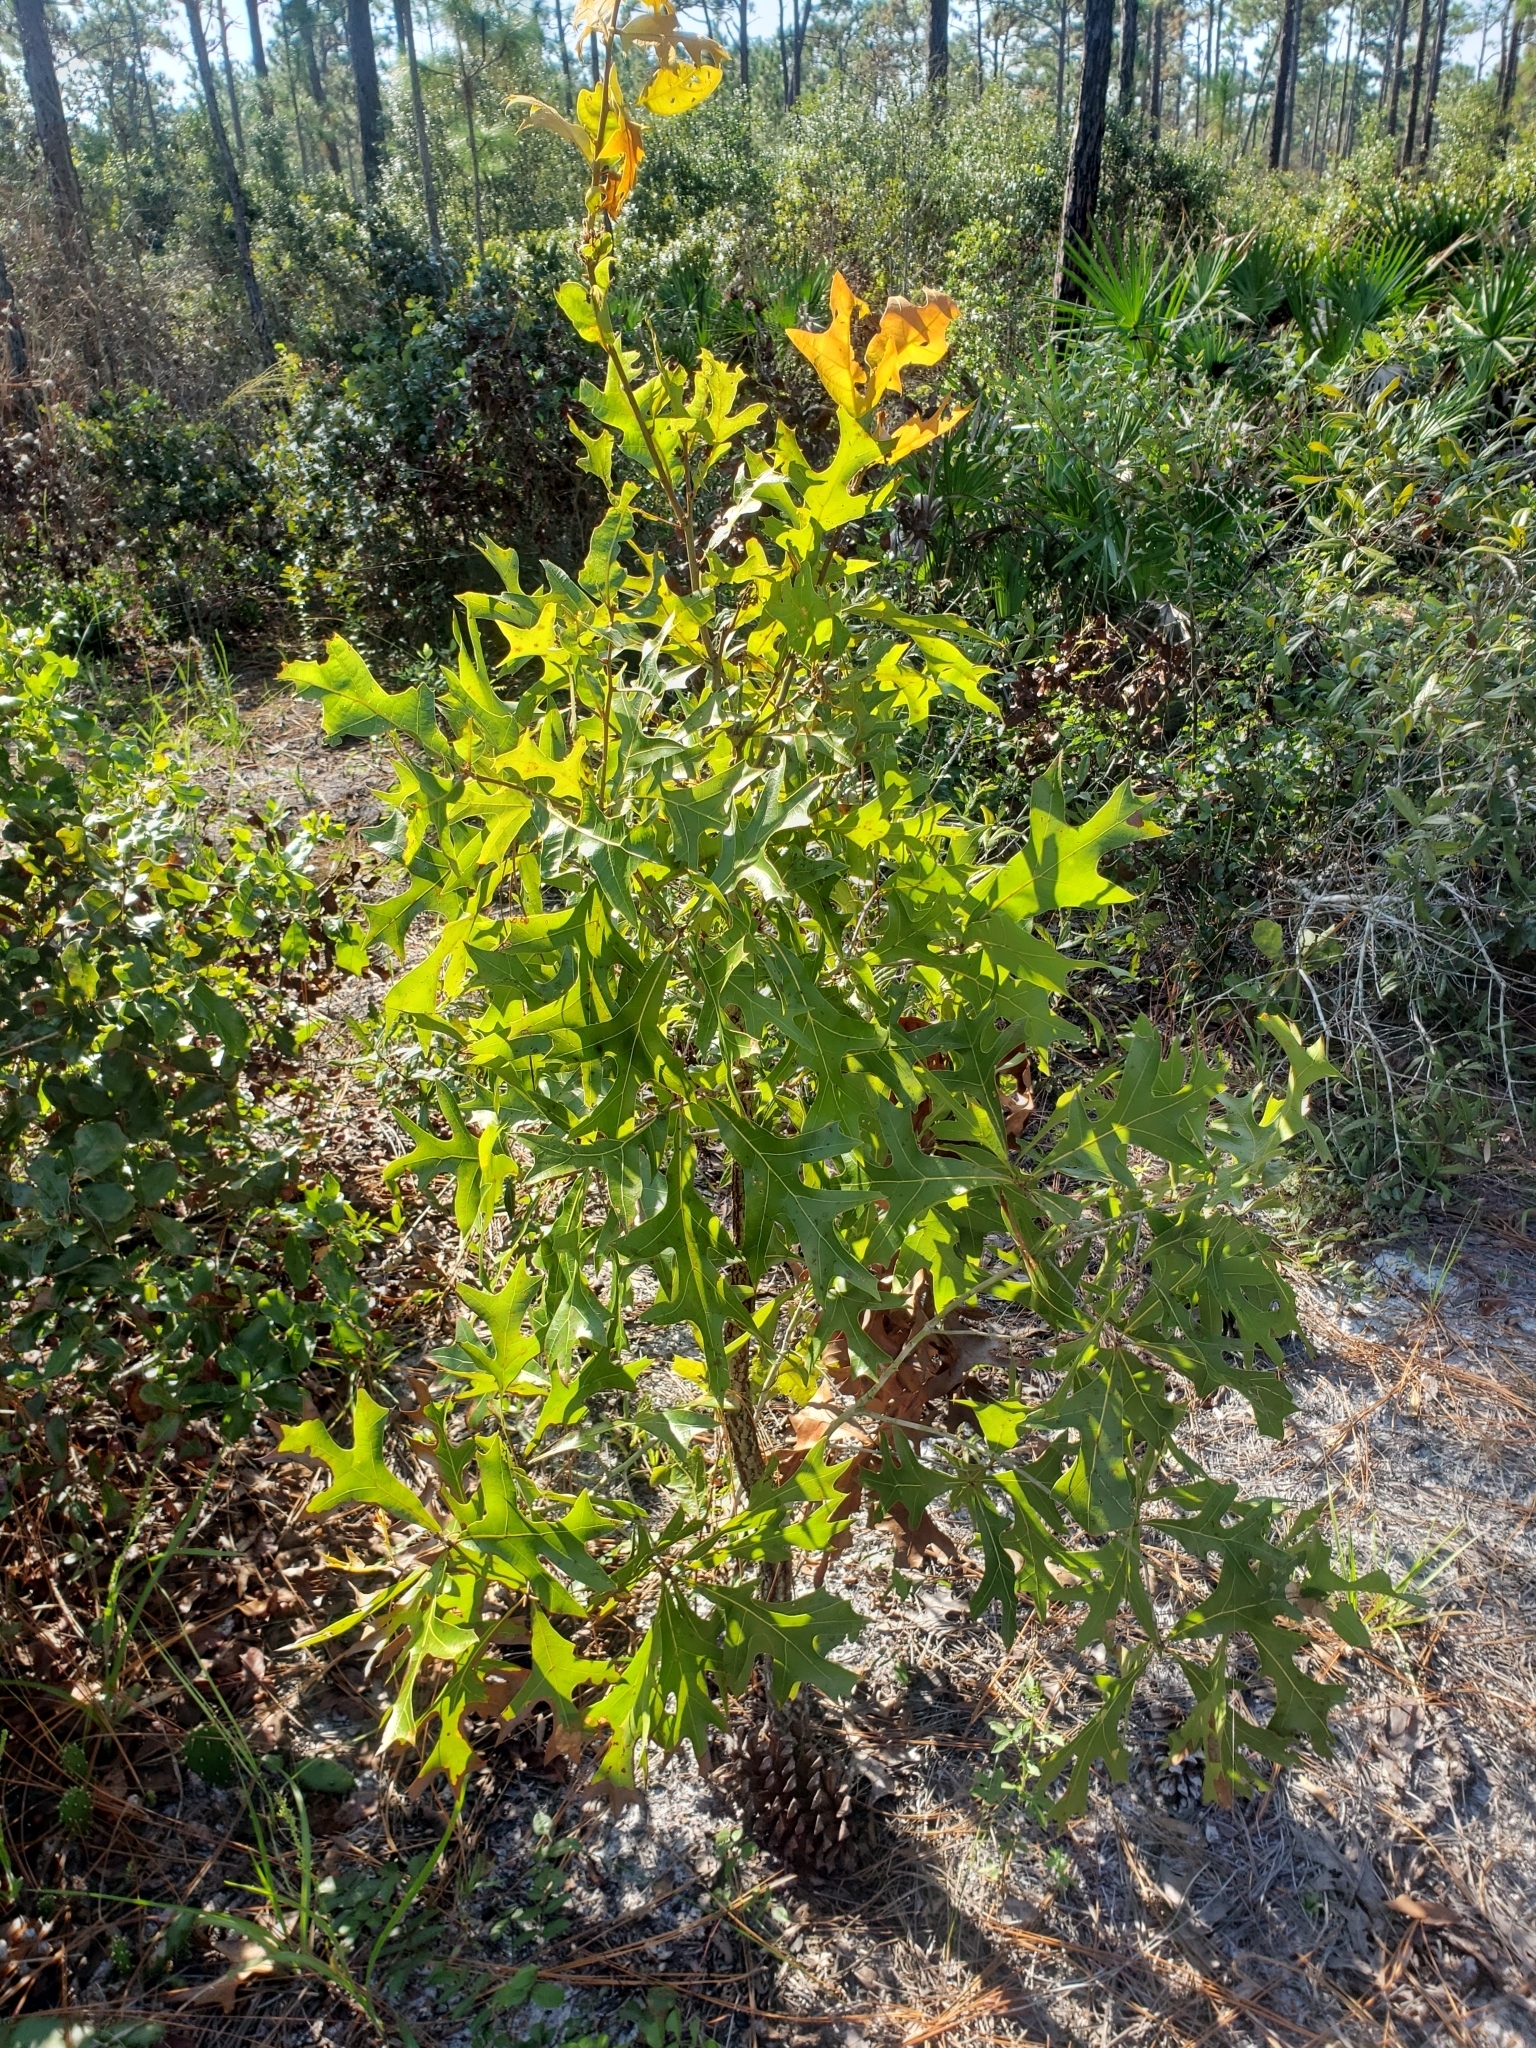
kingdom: Plantae
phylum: Tracheophyta
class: Magnoliopsida
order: Fagales
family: Fagaceae
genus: Quercus
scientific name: Quercus laevis
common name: Turkey oak
